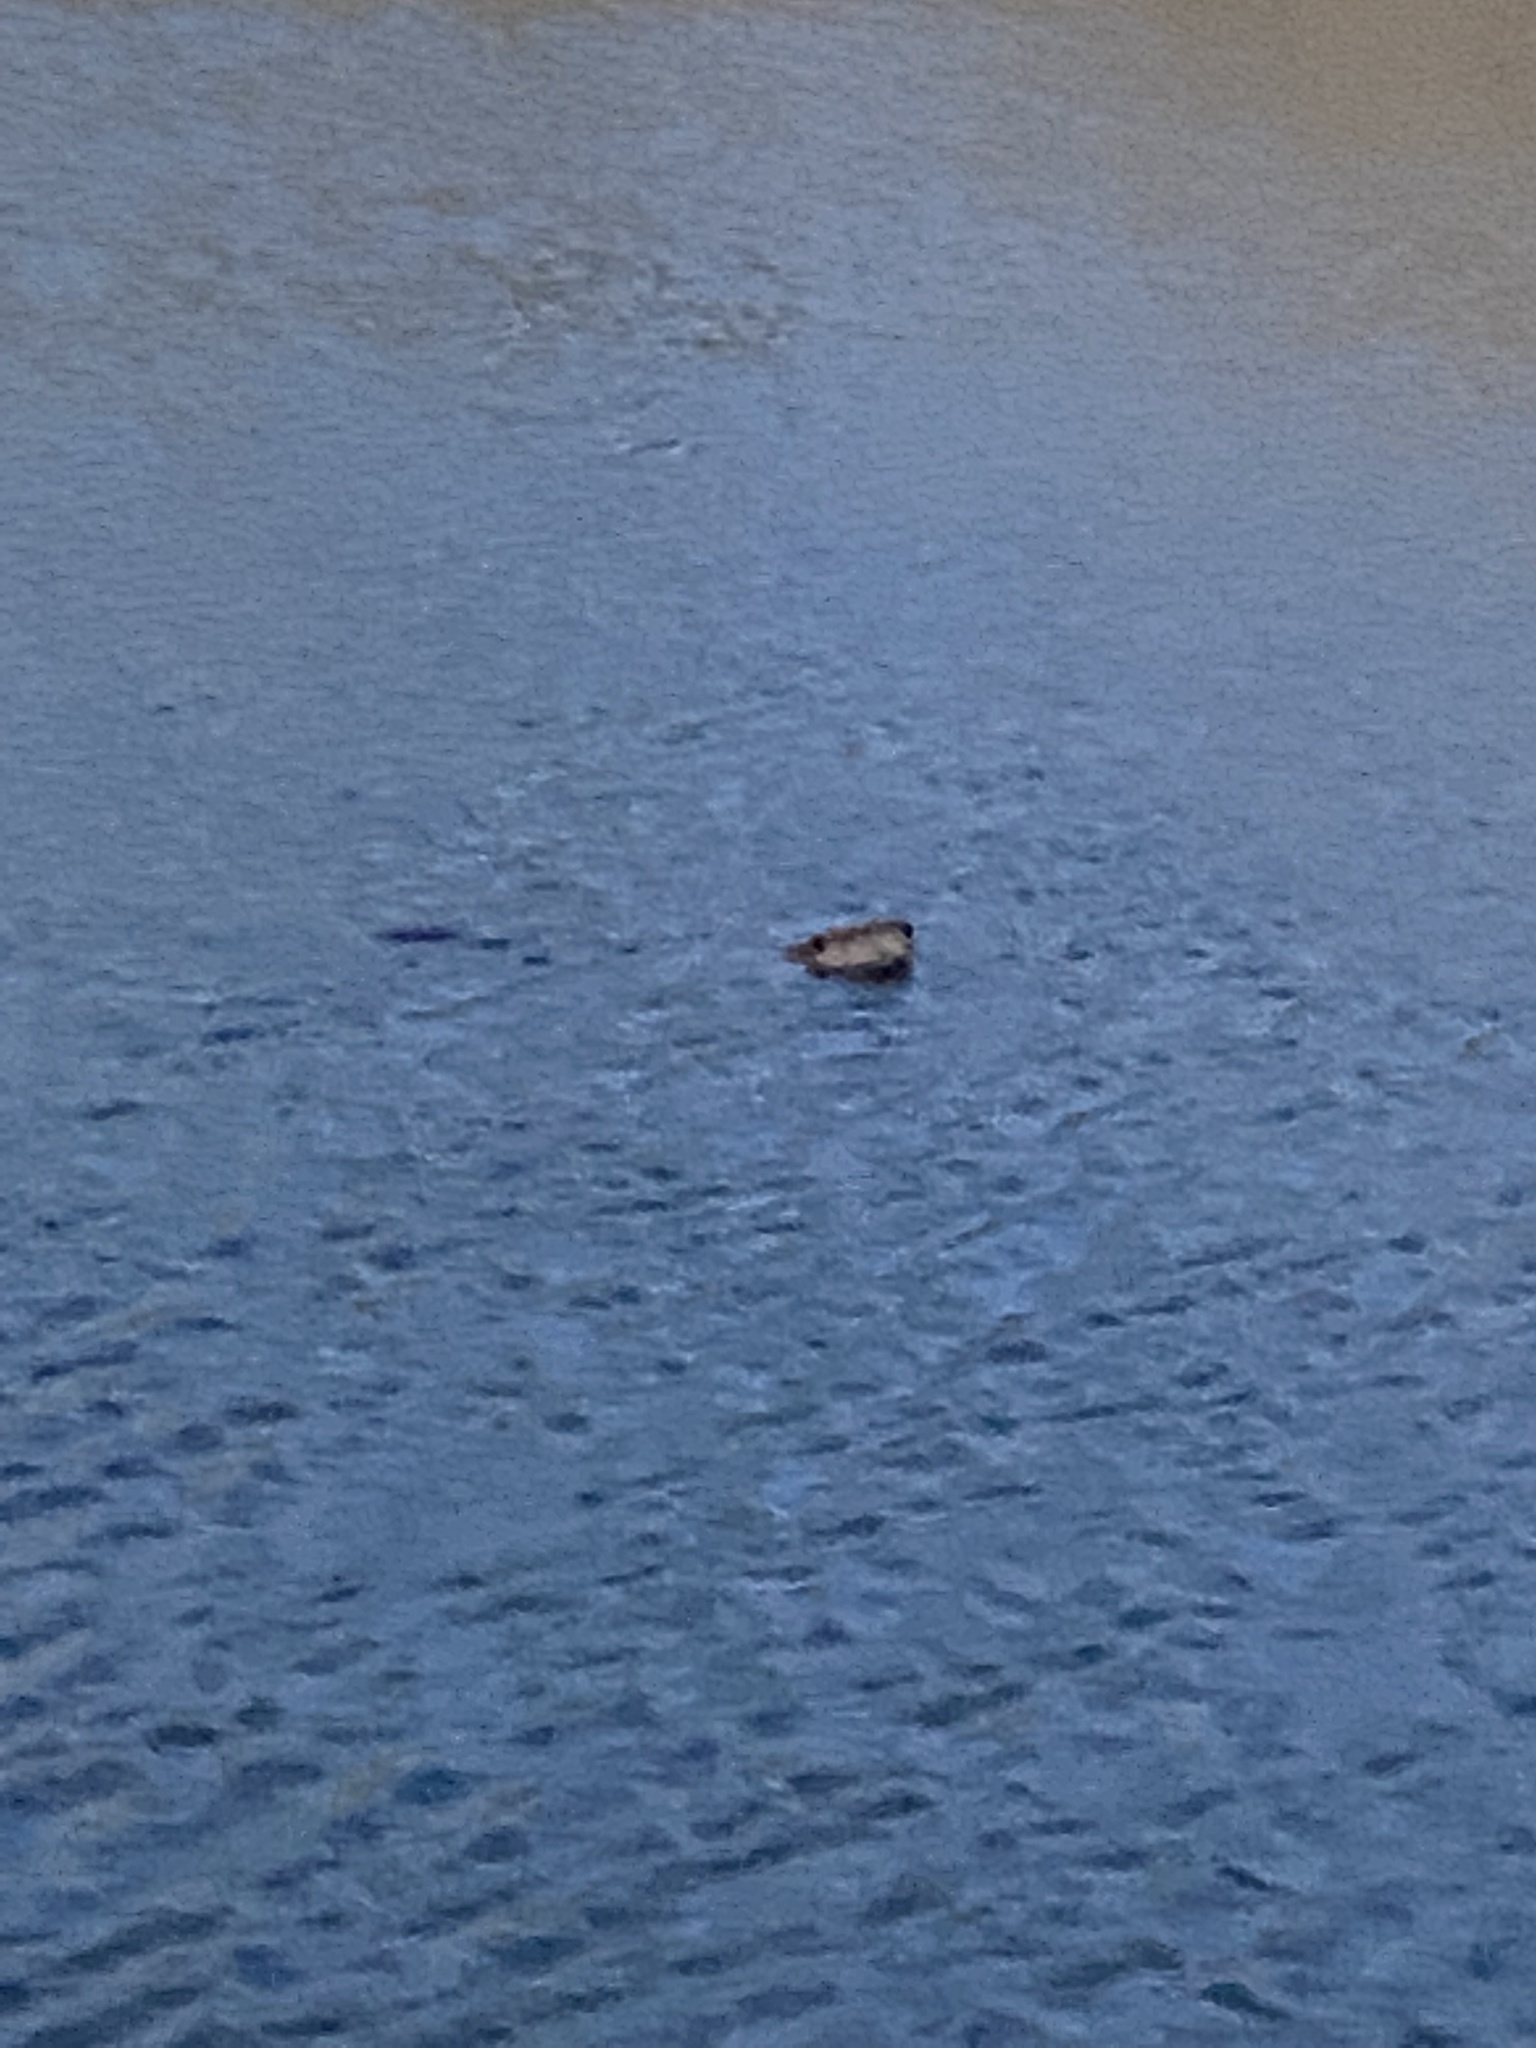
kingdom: Animalia
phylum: Chordata
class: Mammalia
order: Rodentia
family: Castoridae
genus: Castor
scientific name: Castor canadensis
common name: American beaver
